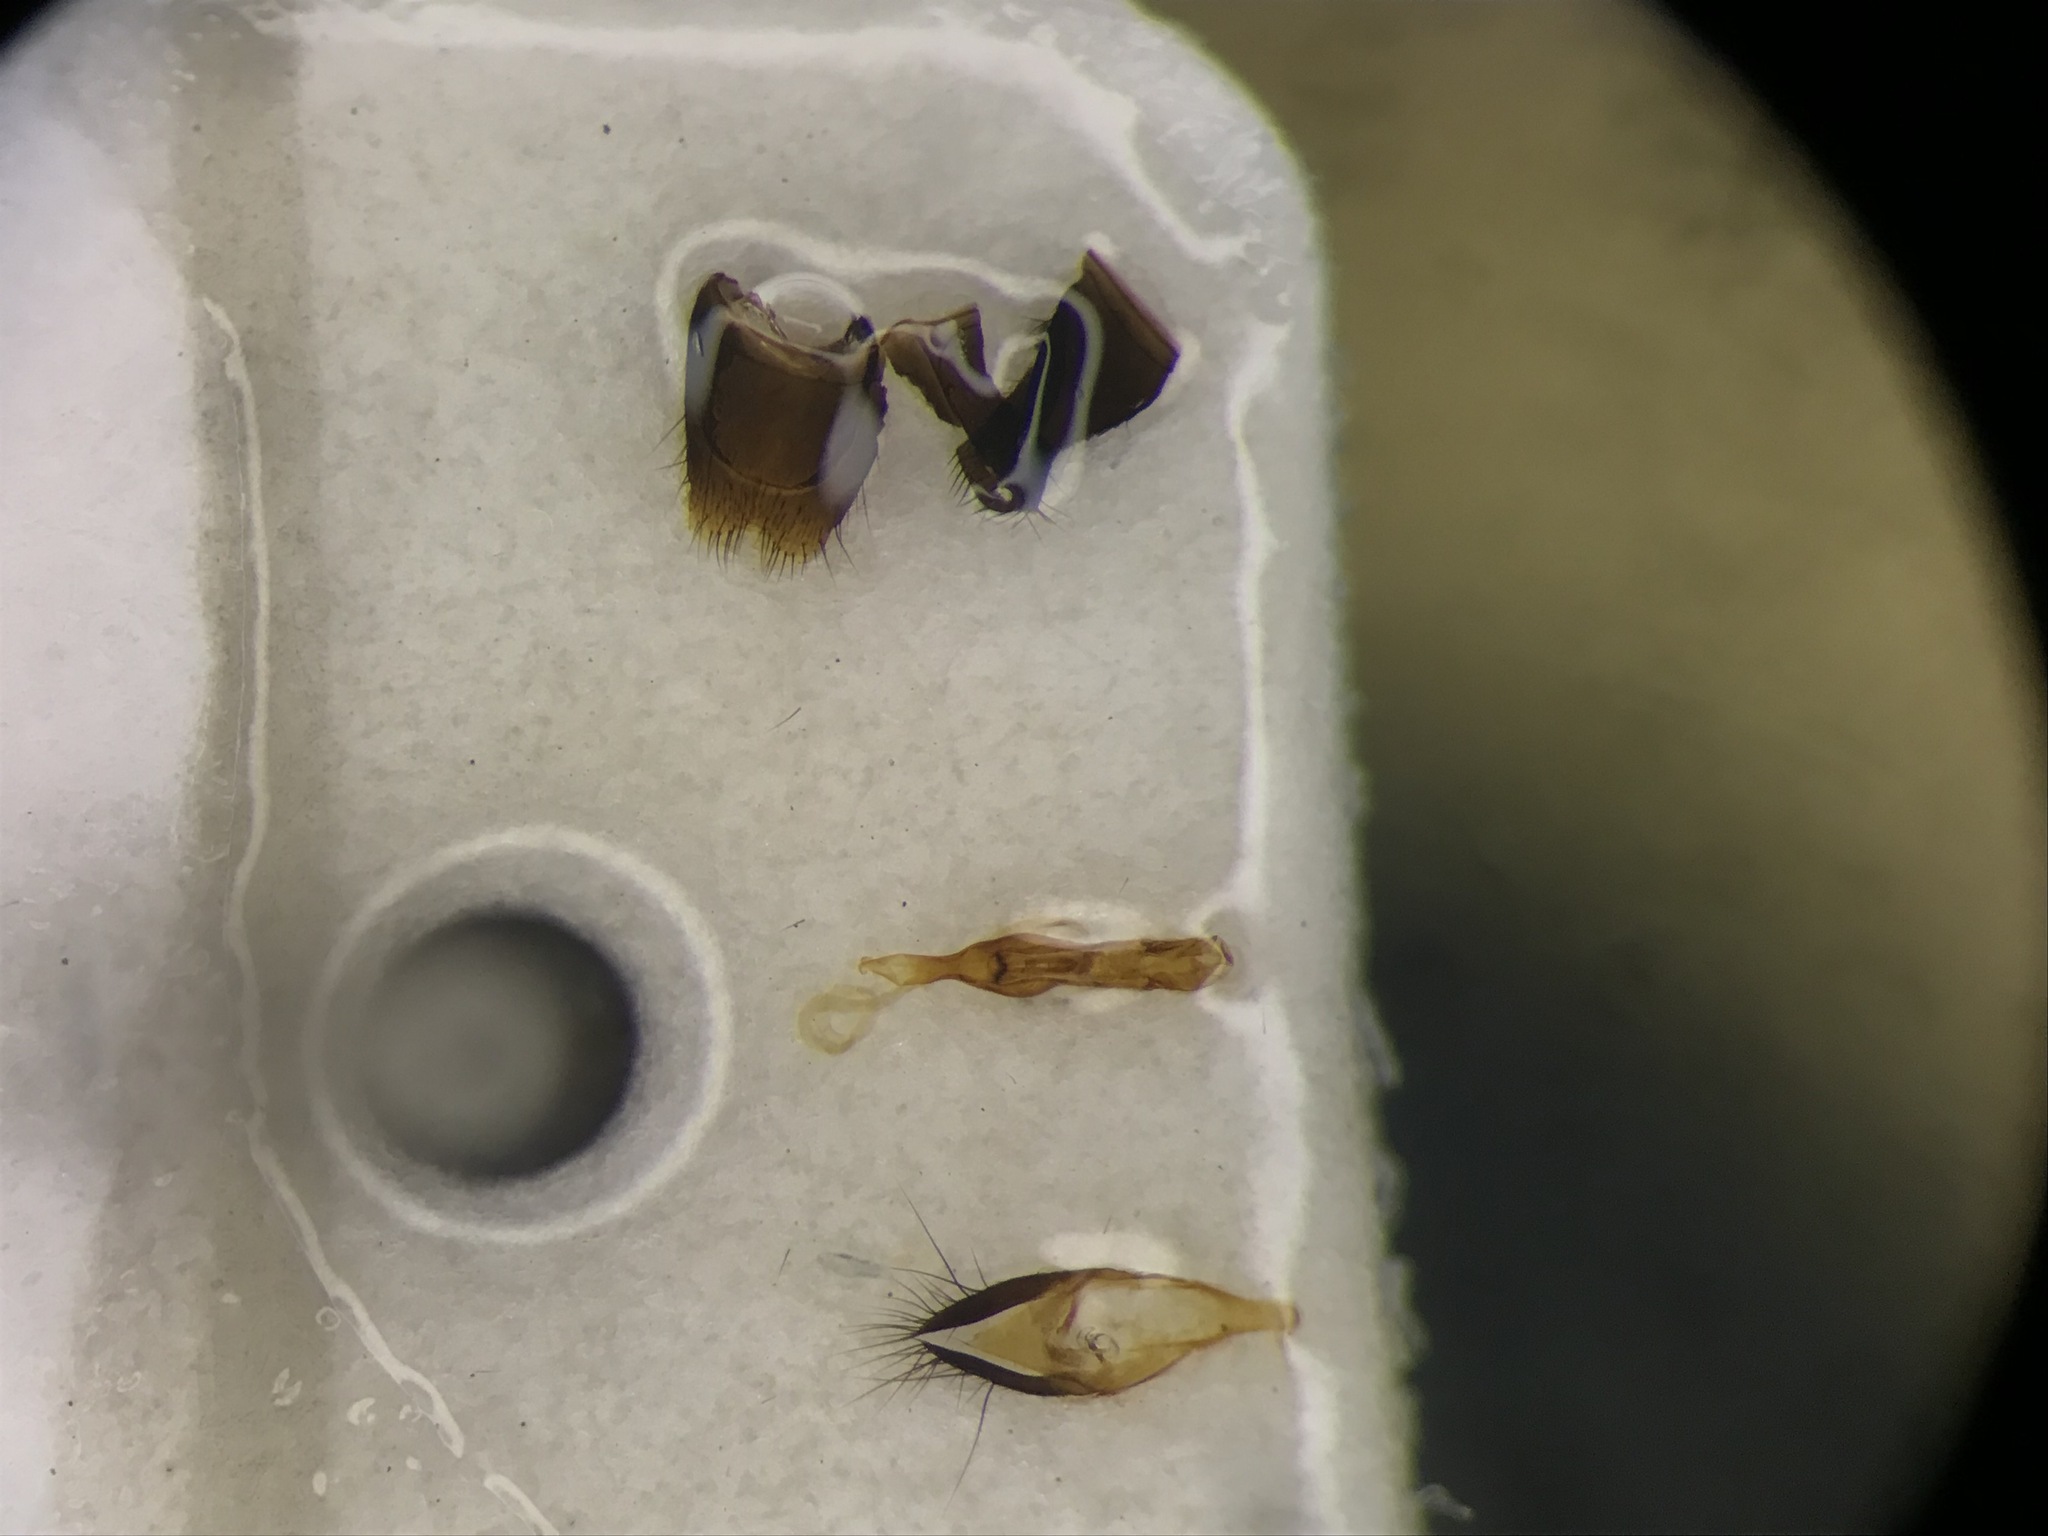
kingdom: Animalia
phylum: Arthropoda
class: Insecta
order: Coleoptera
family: Staphylinidae
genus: Gabrius
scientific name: Gabrius fallaciosus
